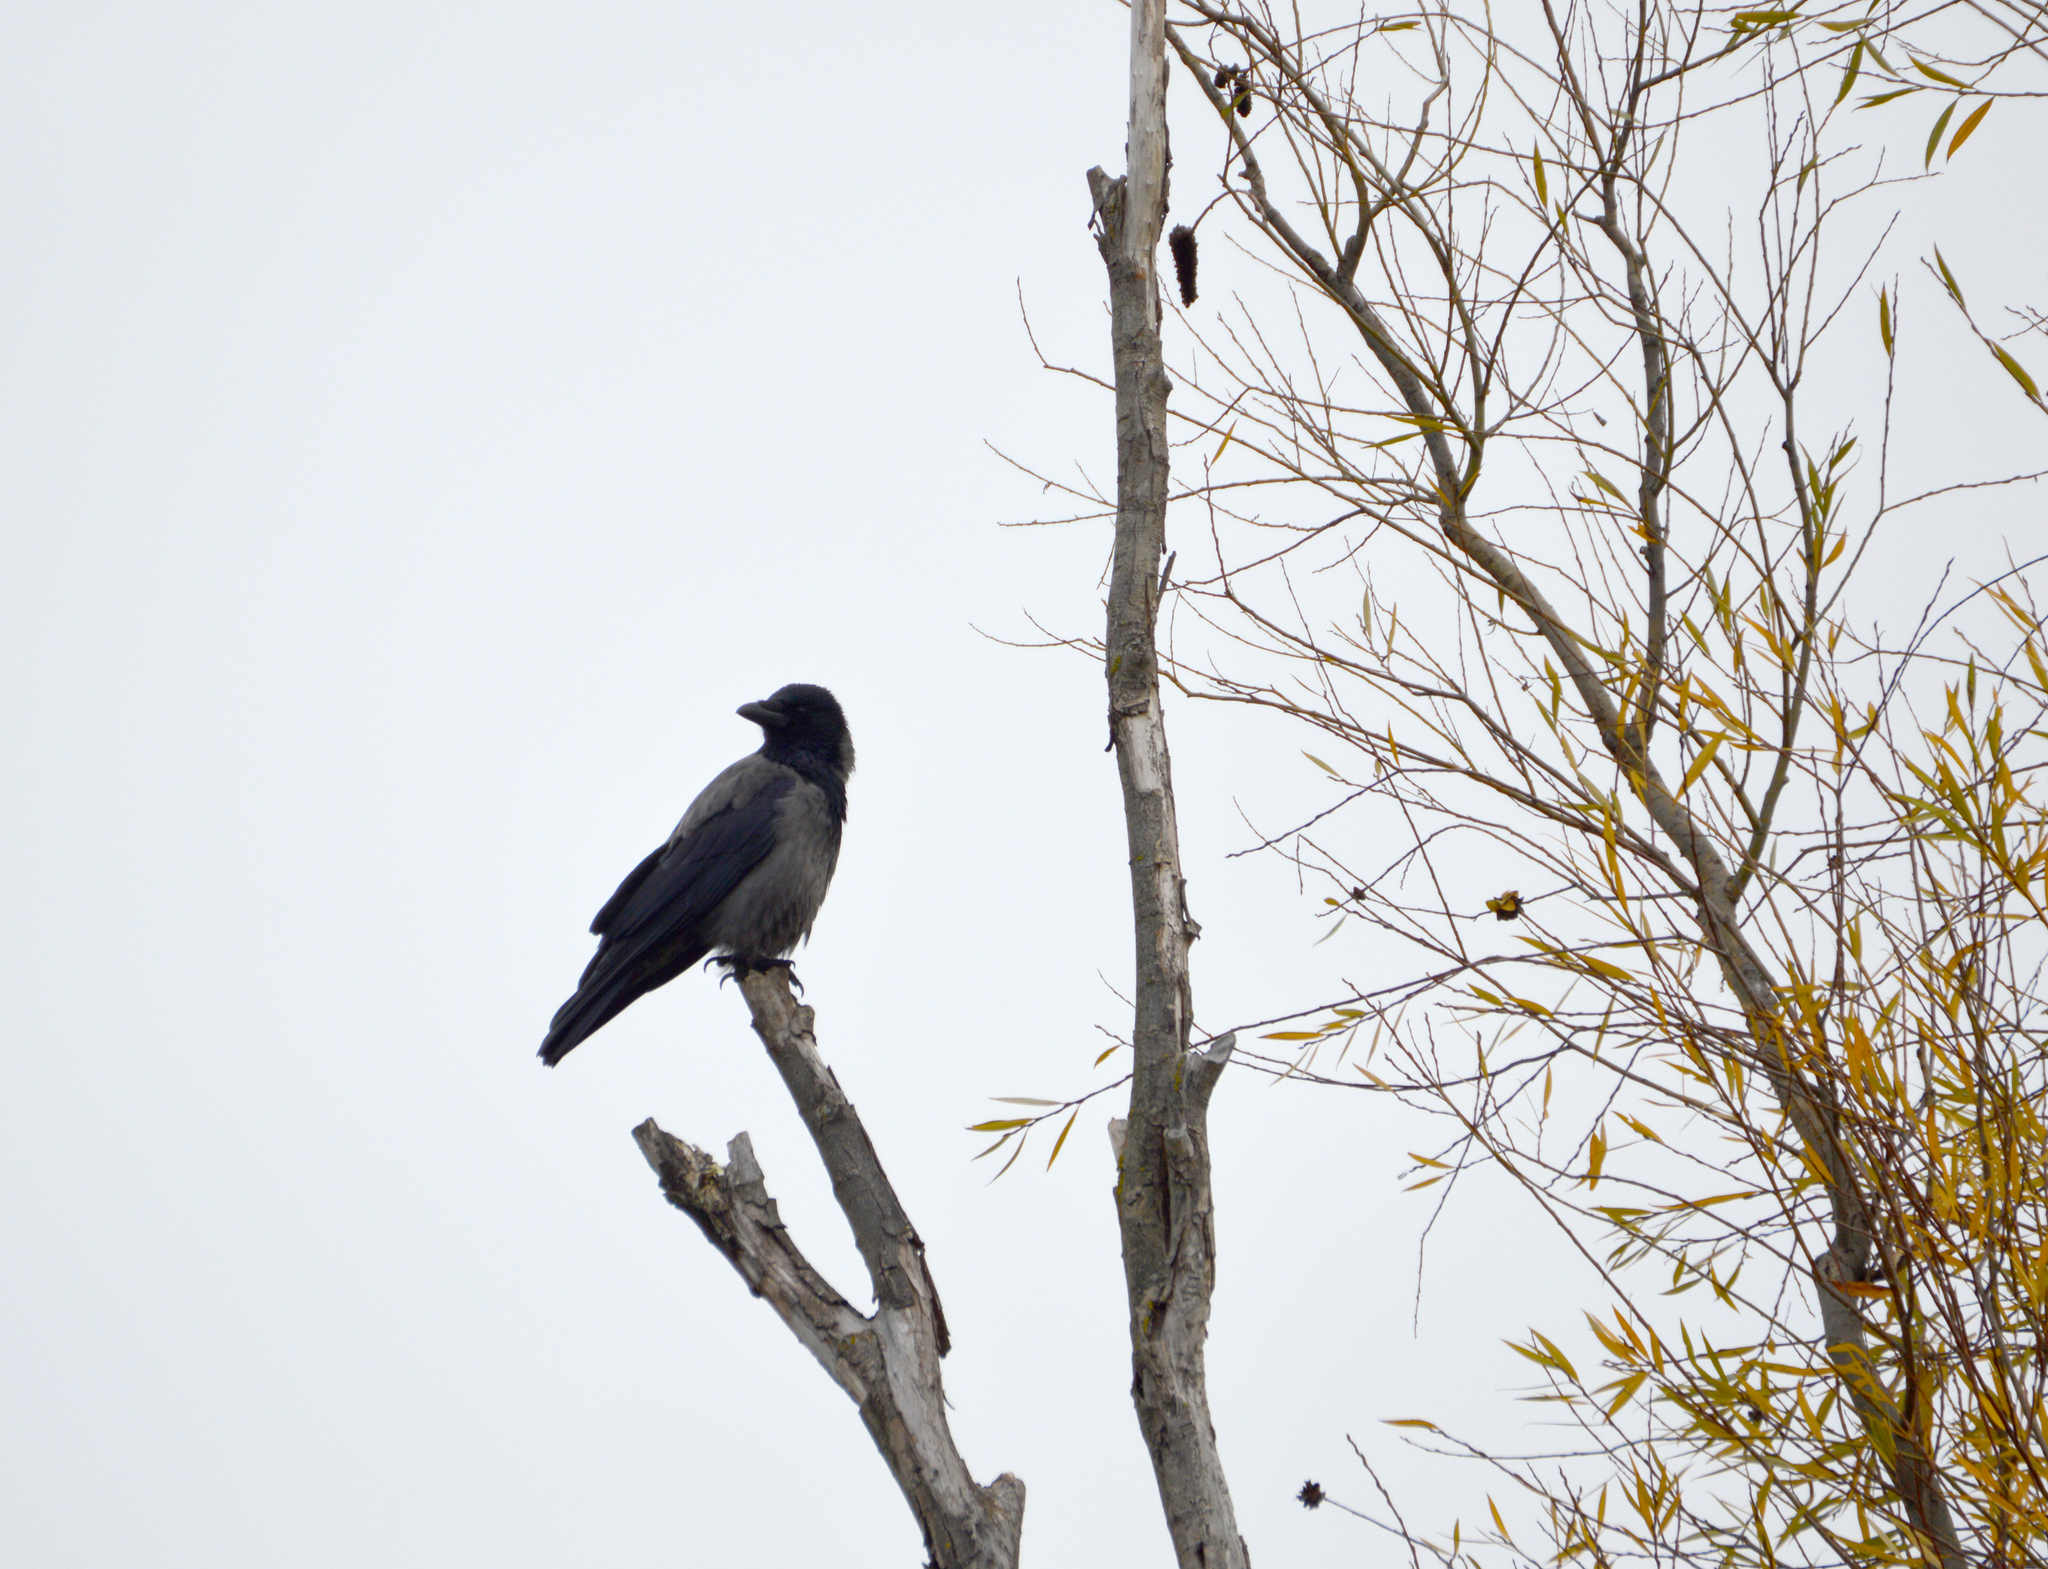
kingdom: Animalia
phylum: Chordata
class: Aves
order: Passeriformes
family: Corvidae
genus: Corvus
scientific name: Corvus cornix
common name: Hooded crow
